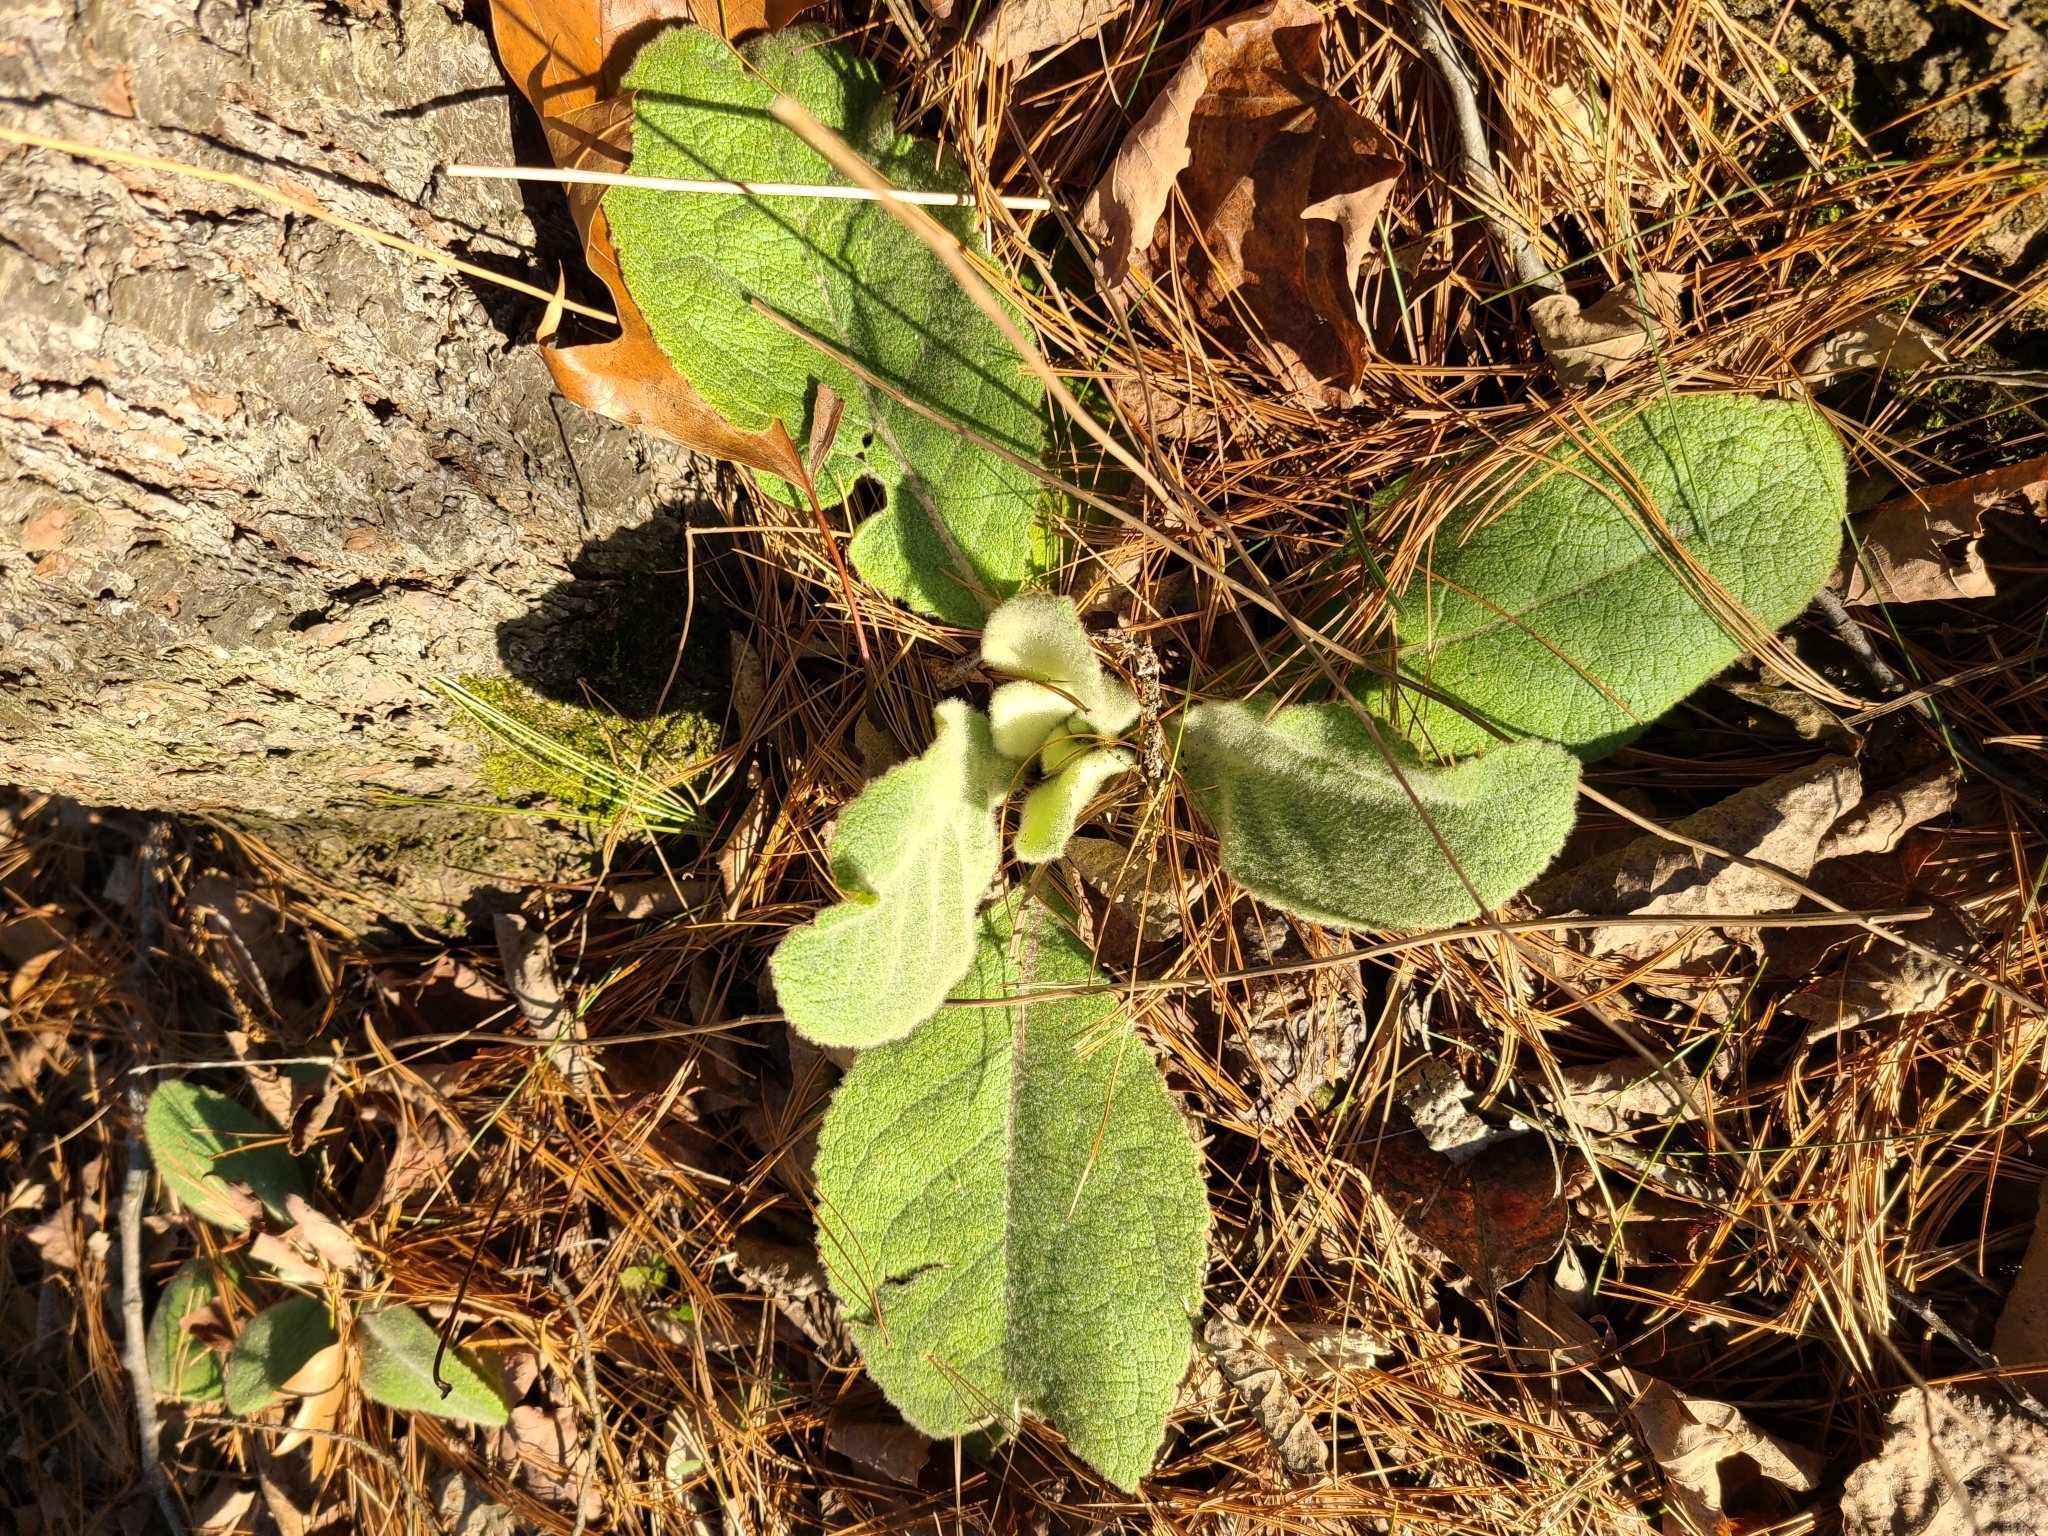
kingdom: Plantae
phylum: Tracheophyta
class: Magnoliopsida
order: Lamiales
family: Scrophulariaceae
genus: Verbascum
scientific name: Verbascum thapsus
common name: Common mullein
